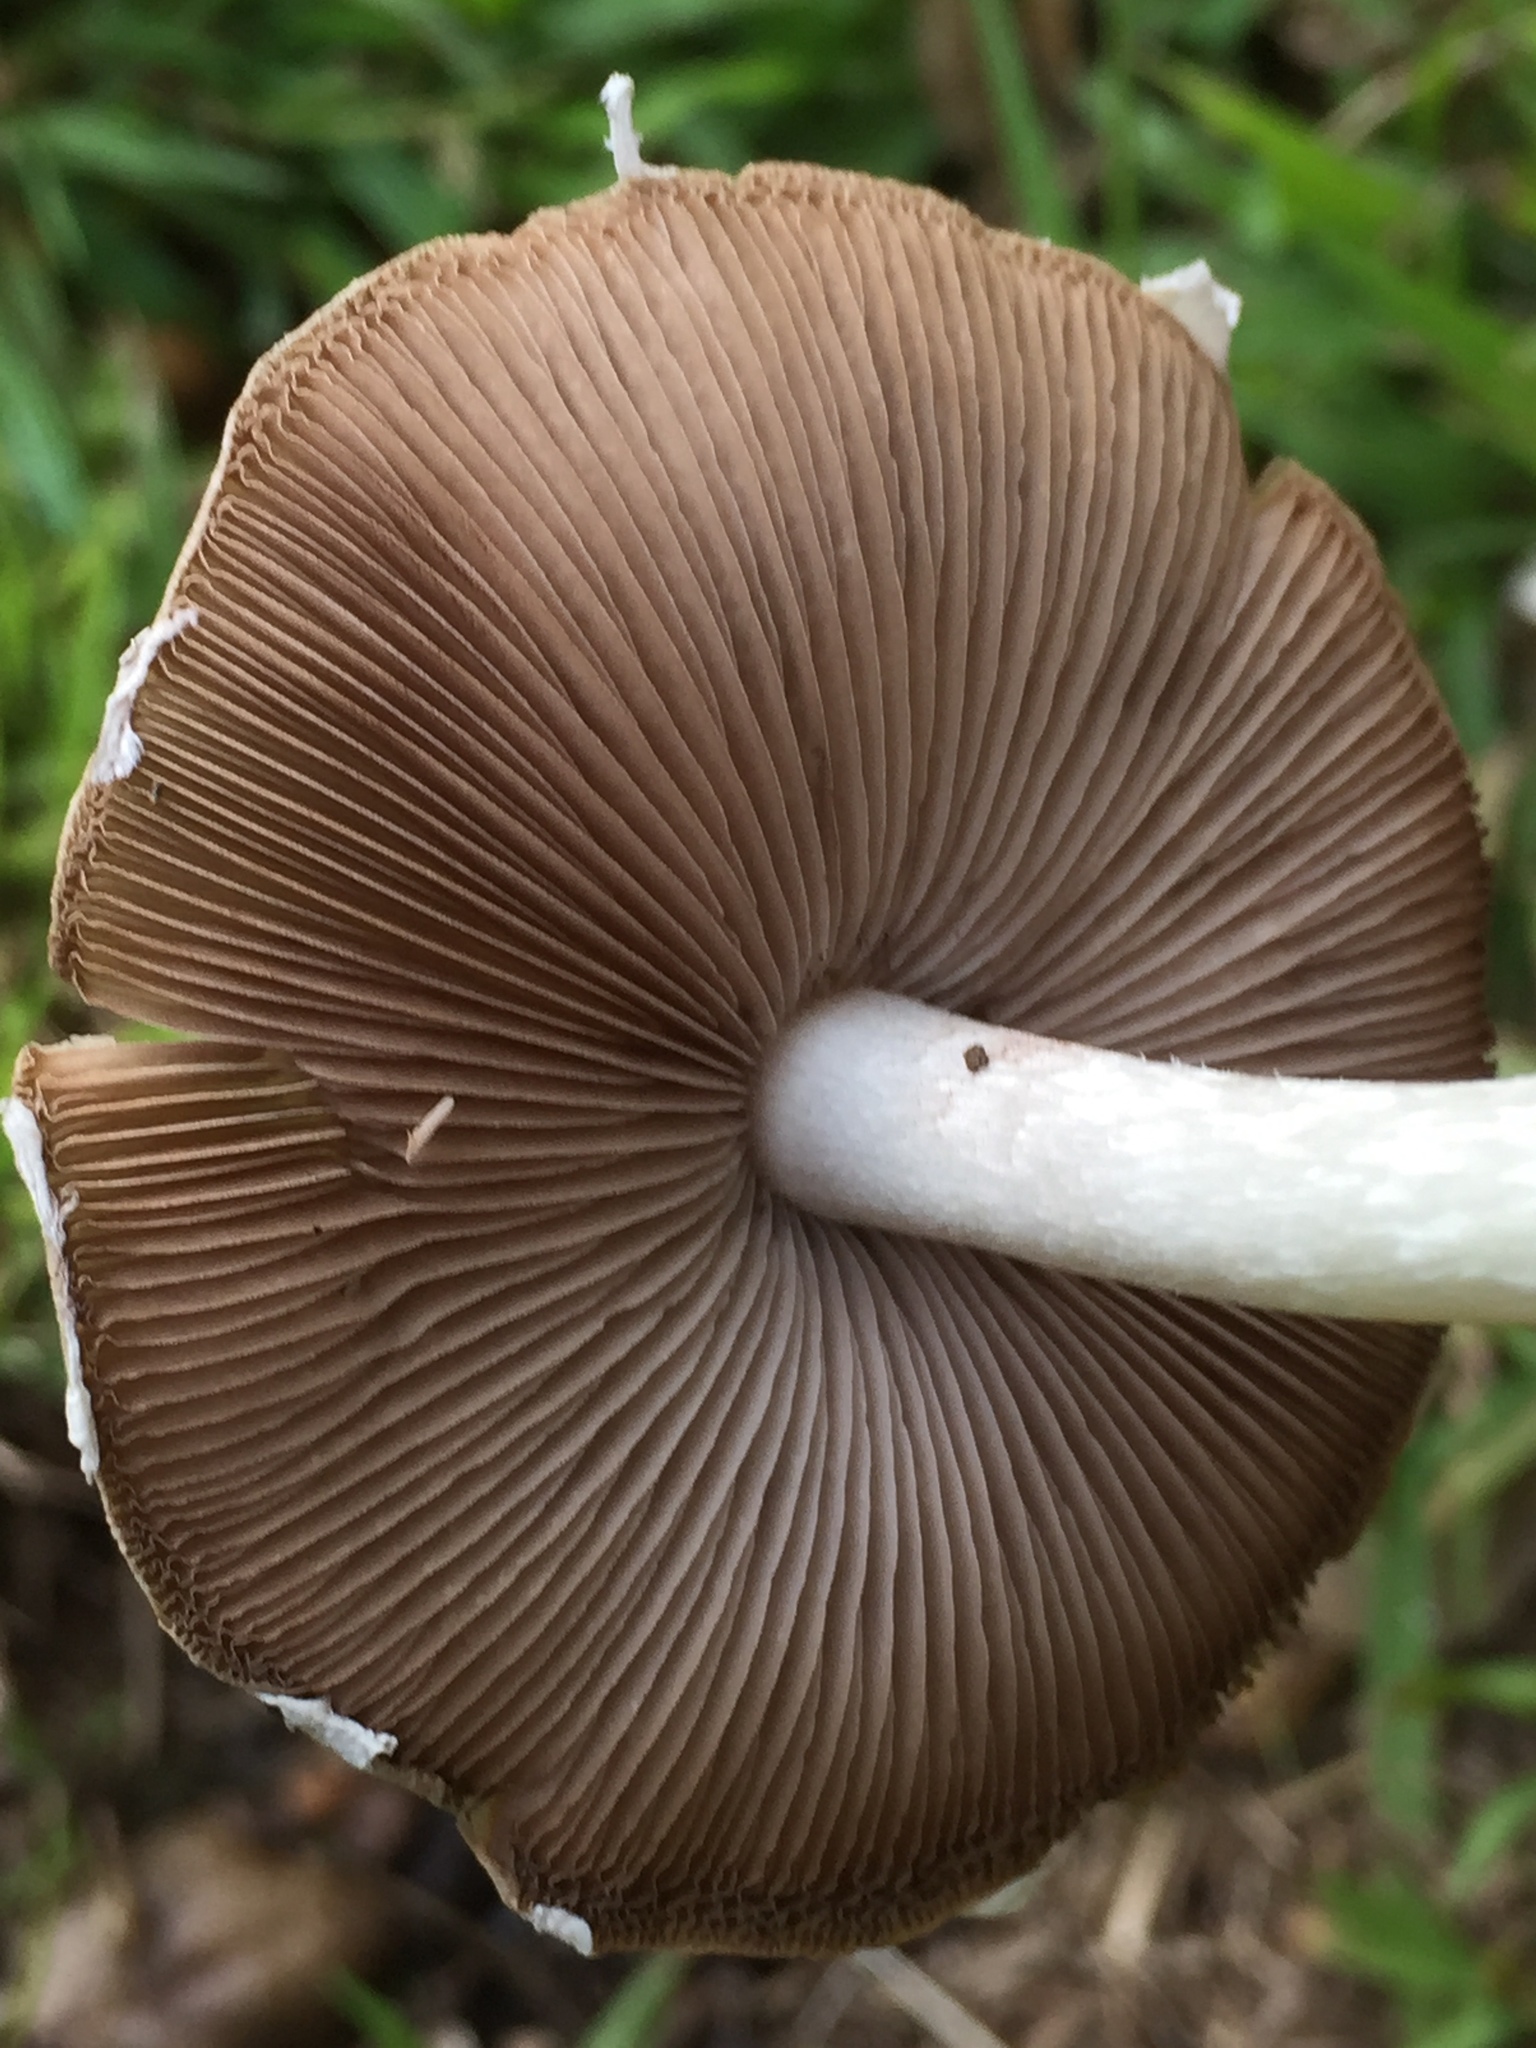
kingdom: Fungi
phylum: Basidiomycota
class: Agaricomycetes
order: Agaricales
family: Psathyrellaceae
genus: Candolleomyces
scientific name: Candolleomyces candolleanus
